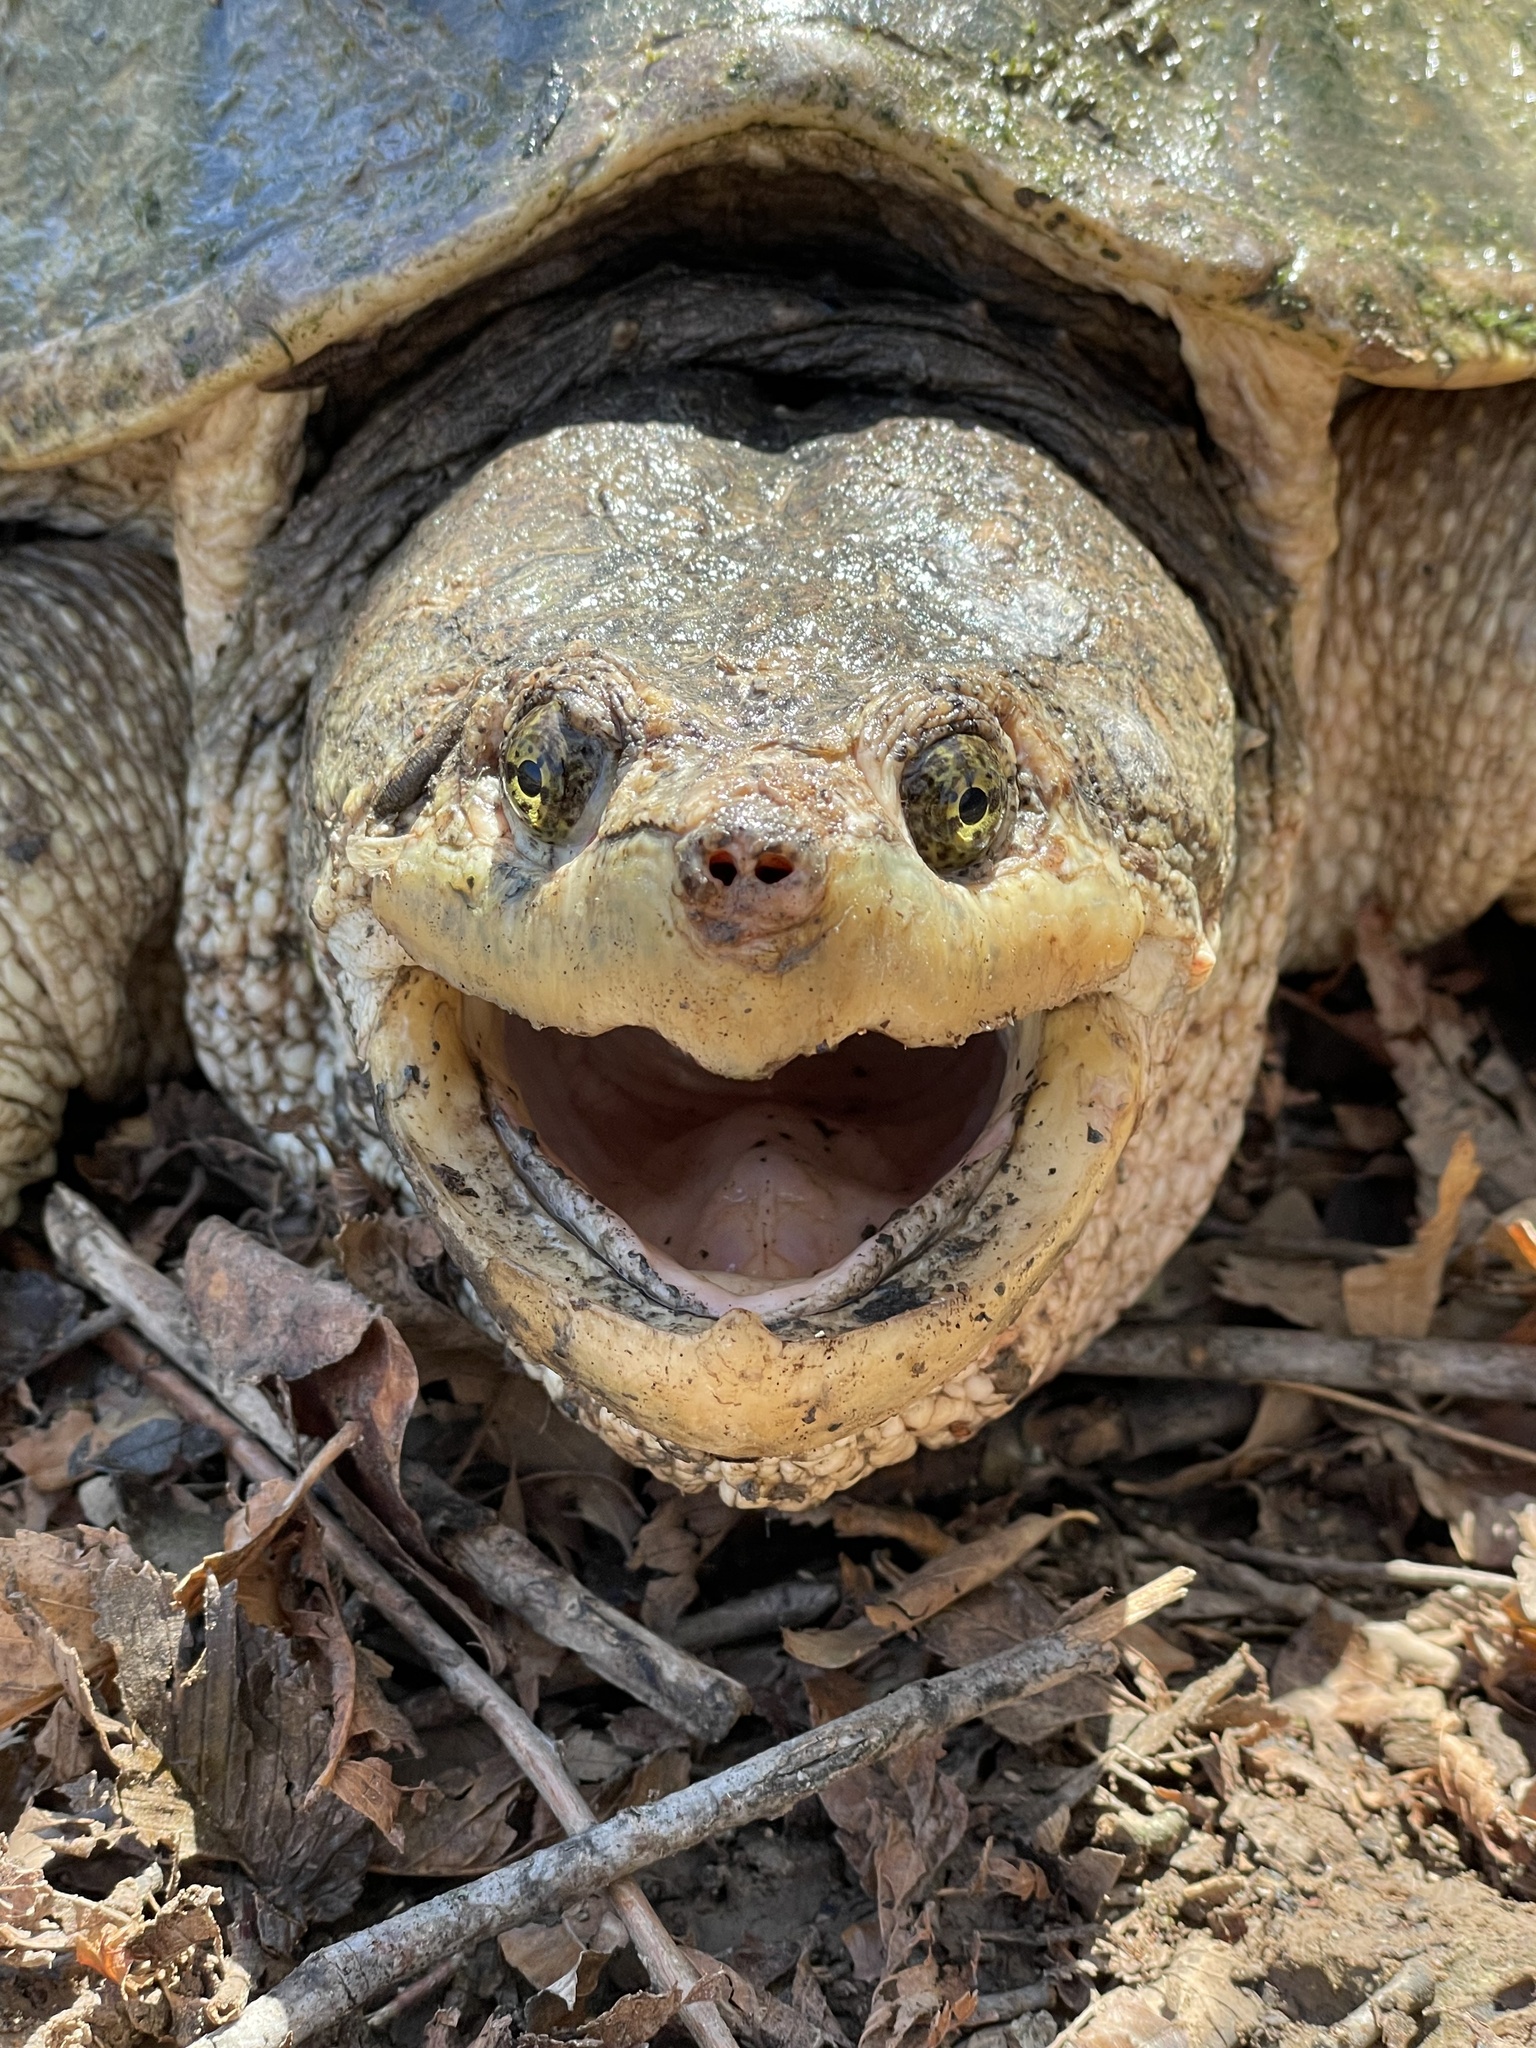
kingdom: Animalia
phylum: Chordata
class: Testudines
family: Chelydridae
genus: Chelydra
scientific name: Chelydra serpentina
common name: Common snapping turtle
